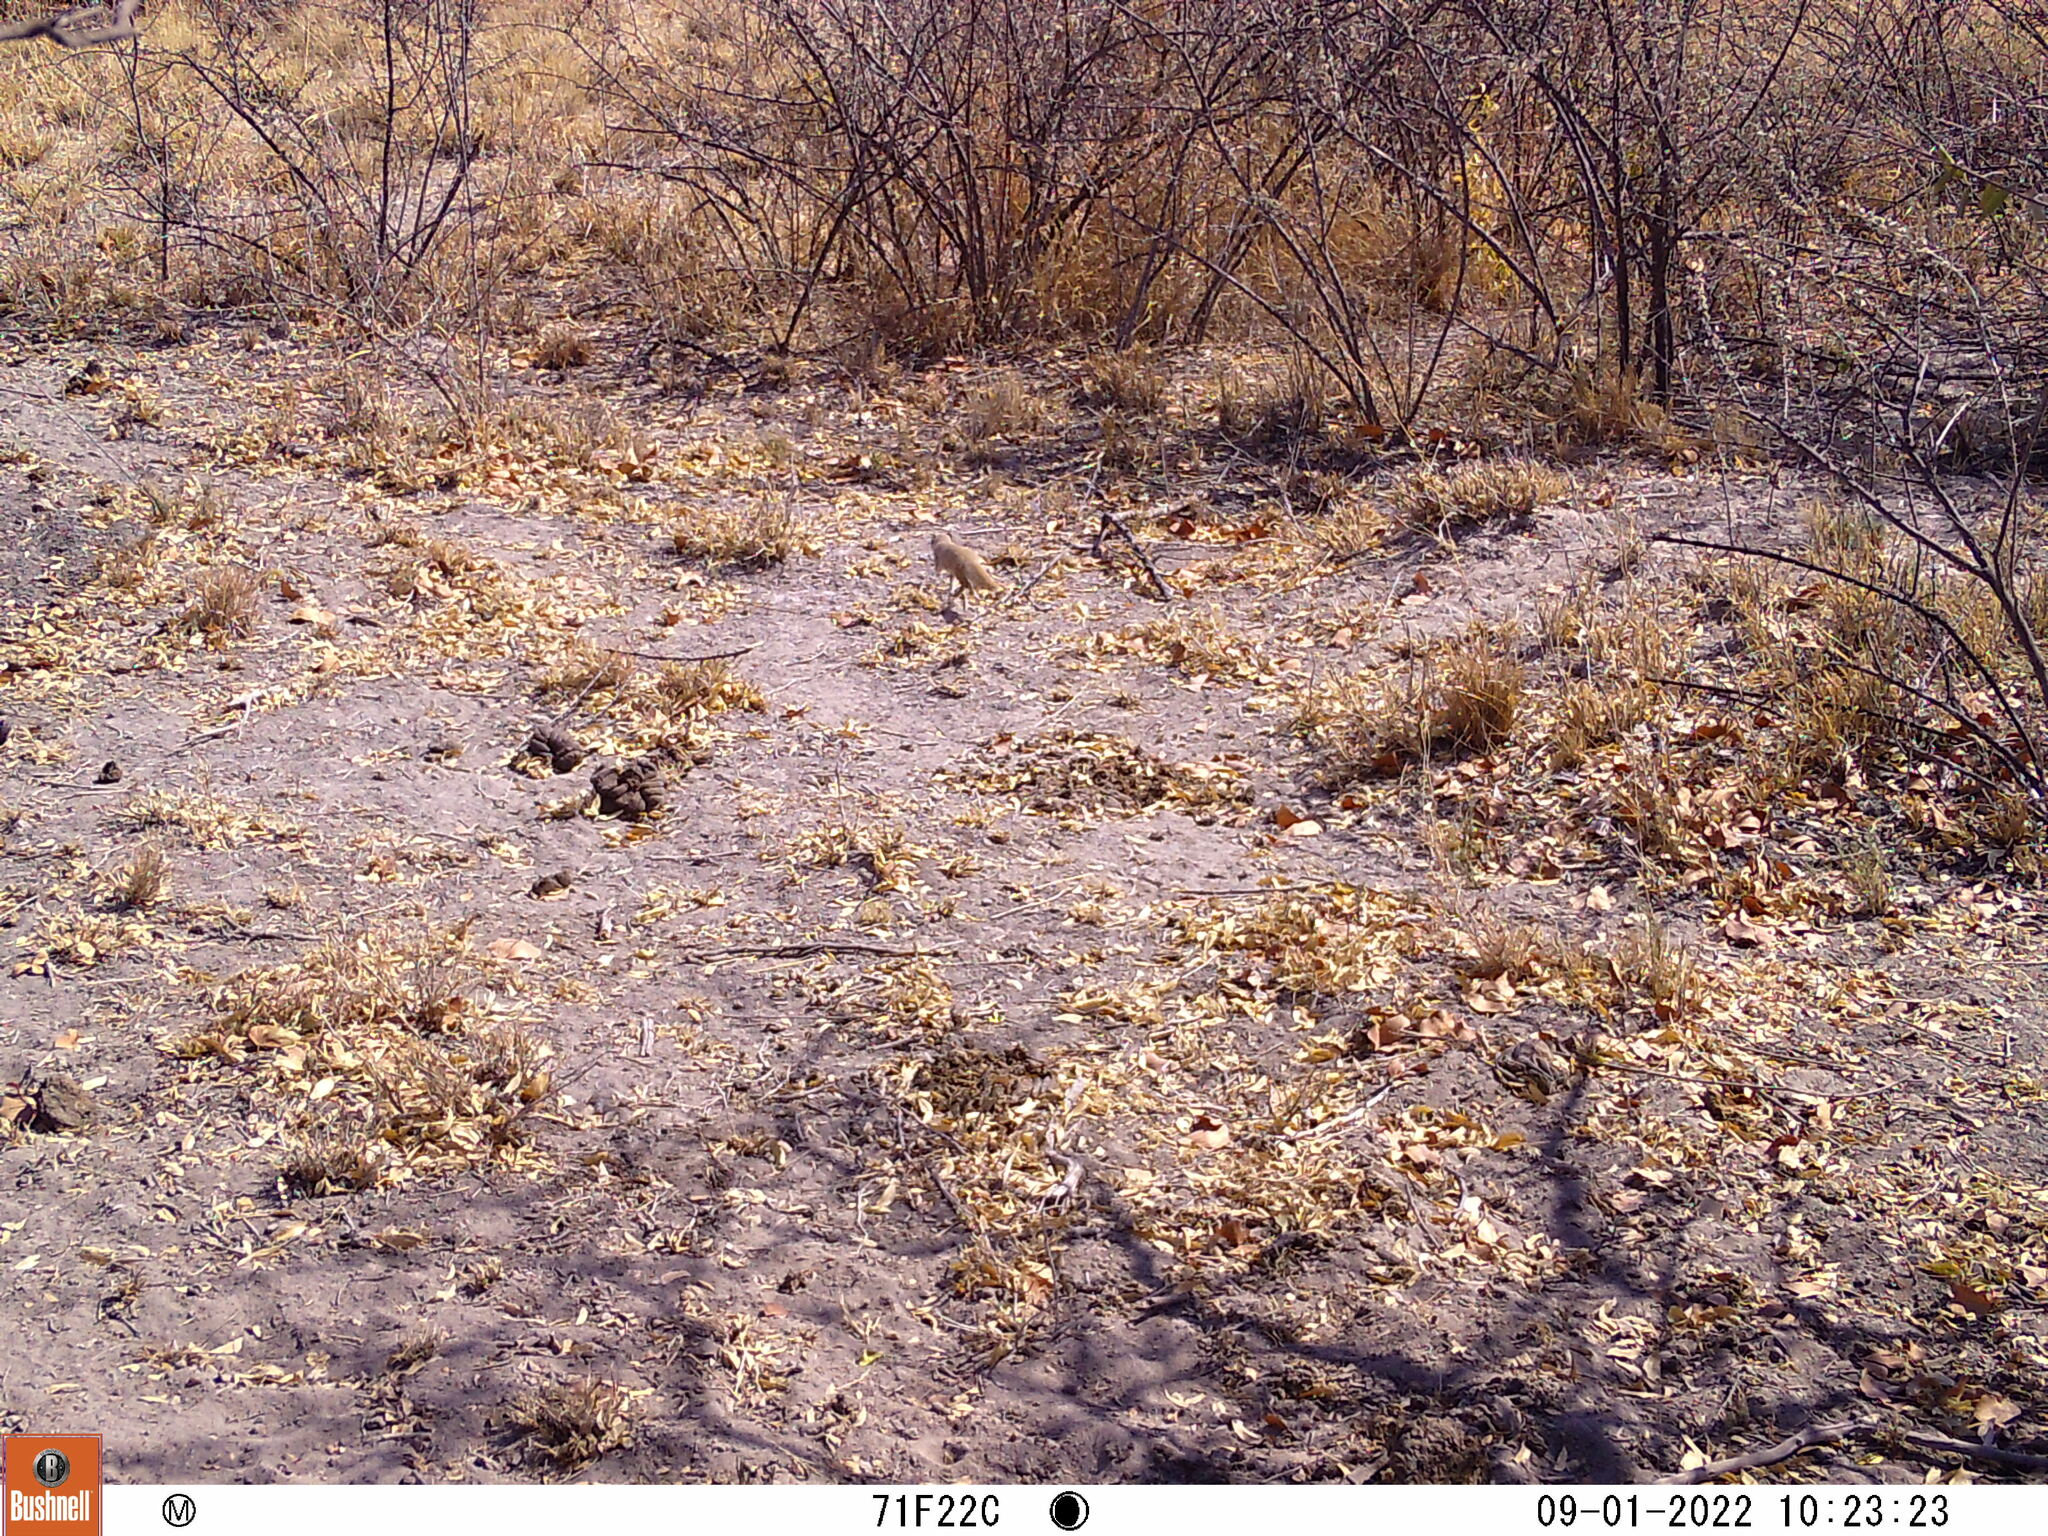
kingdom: Animalia
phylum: Chordata
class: Mammalia
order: Carnivora
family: Herpestidae
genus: Cynictis
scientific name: Cynictis penicillata
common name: Yellow mongoose
